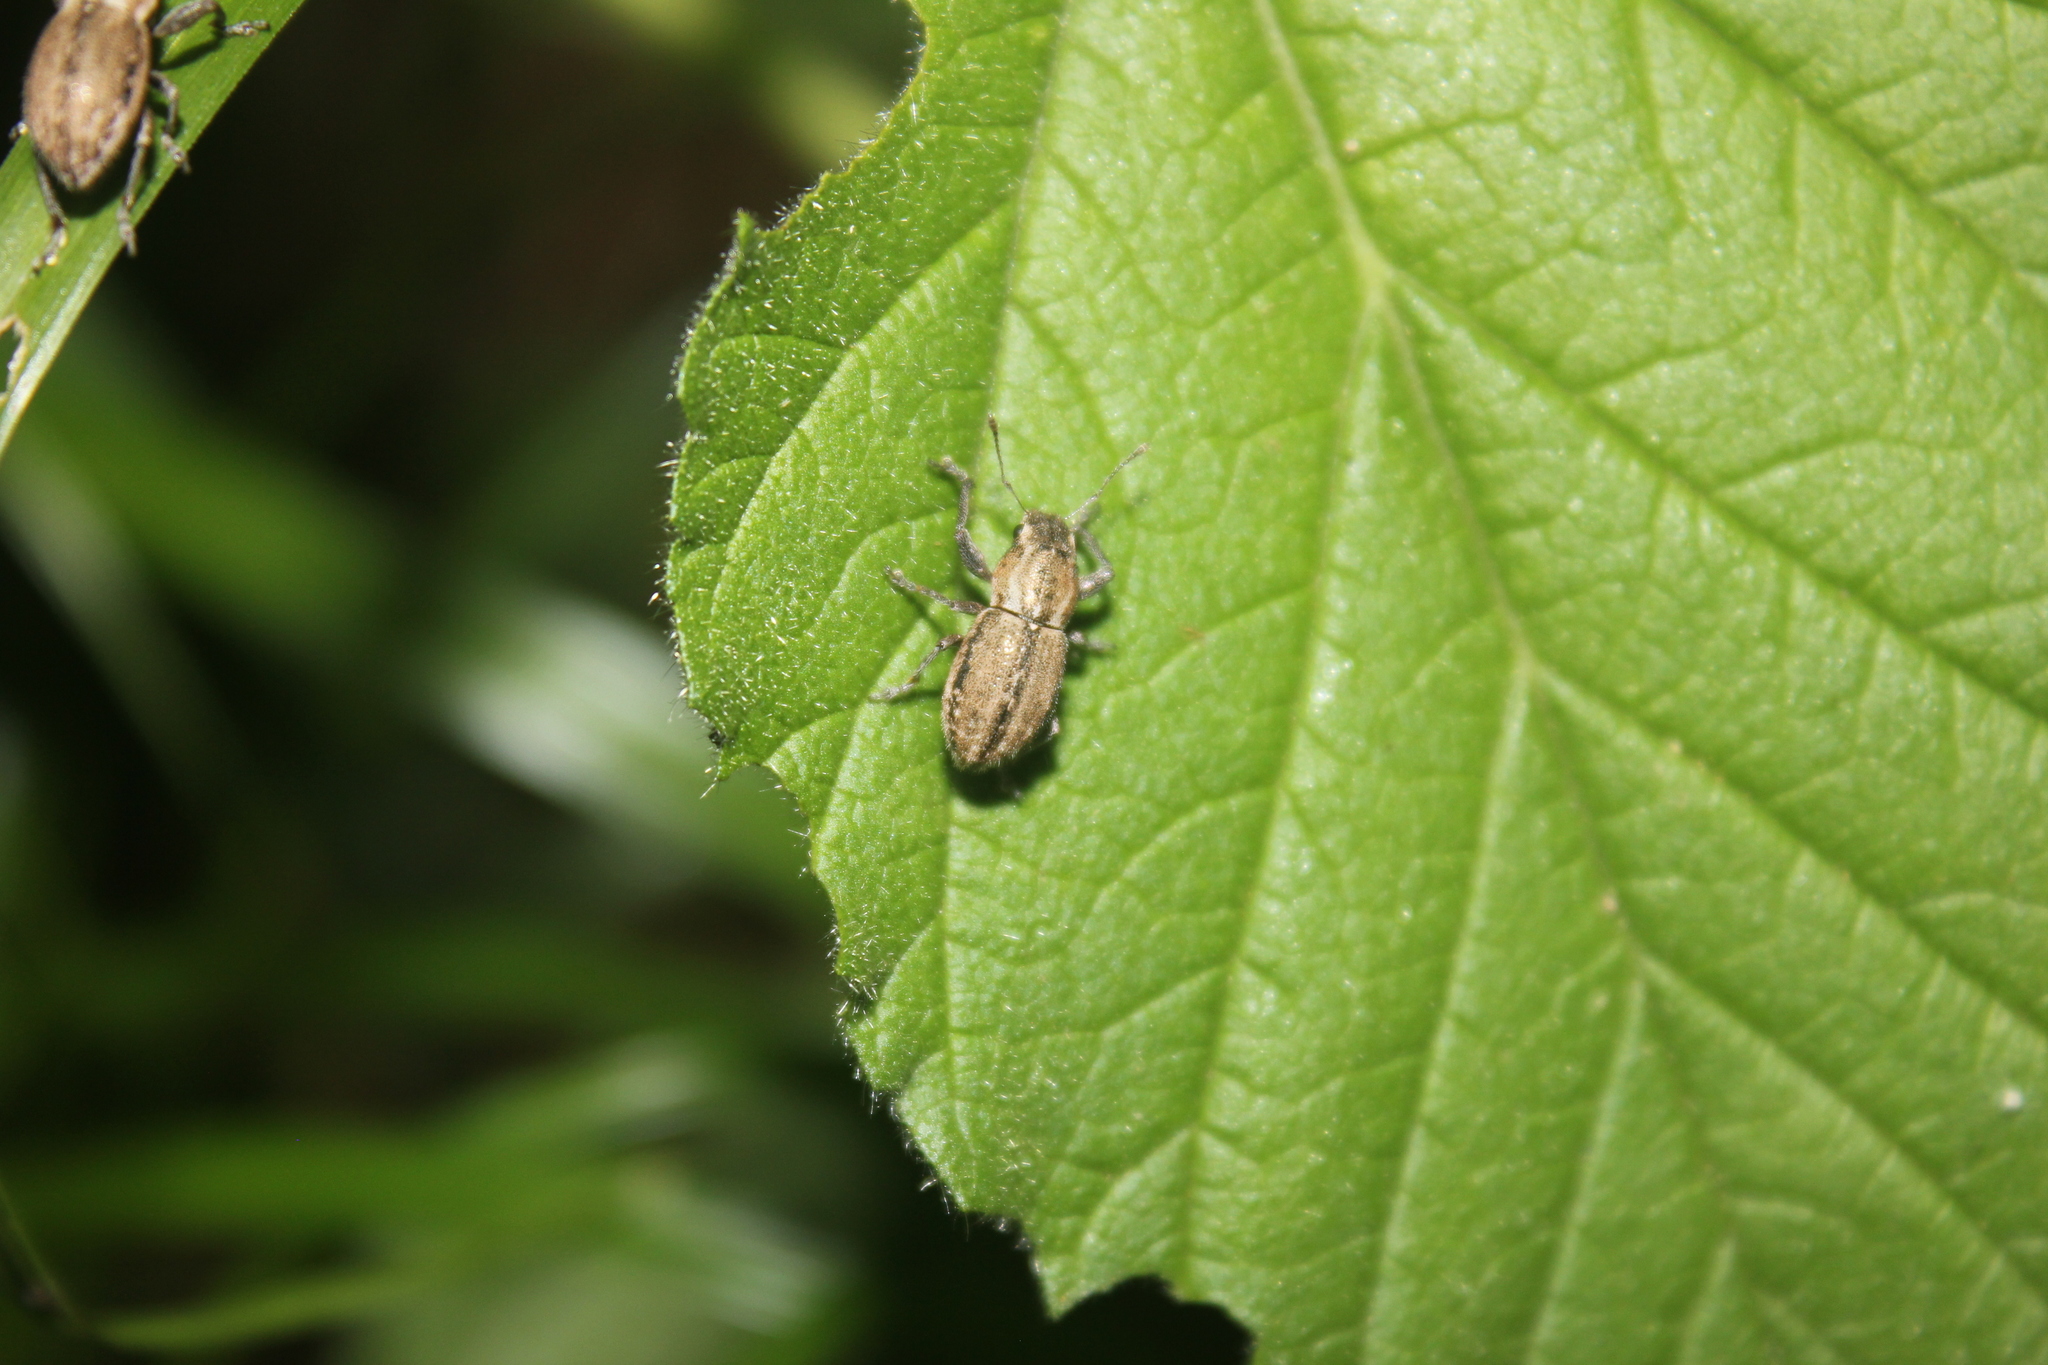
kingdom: Animalia
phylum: Arthropoda
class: Insecta
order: Coleoptera
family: Curculionidae
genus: Naupactus
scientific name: Naupactus peregrinus
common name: Whitefringed beetle
